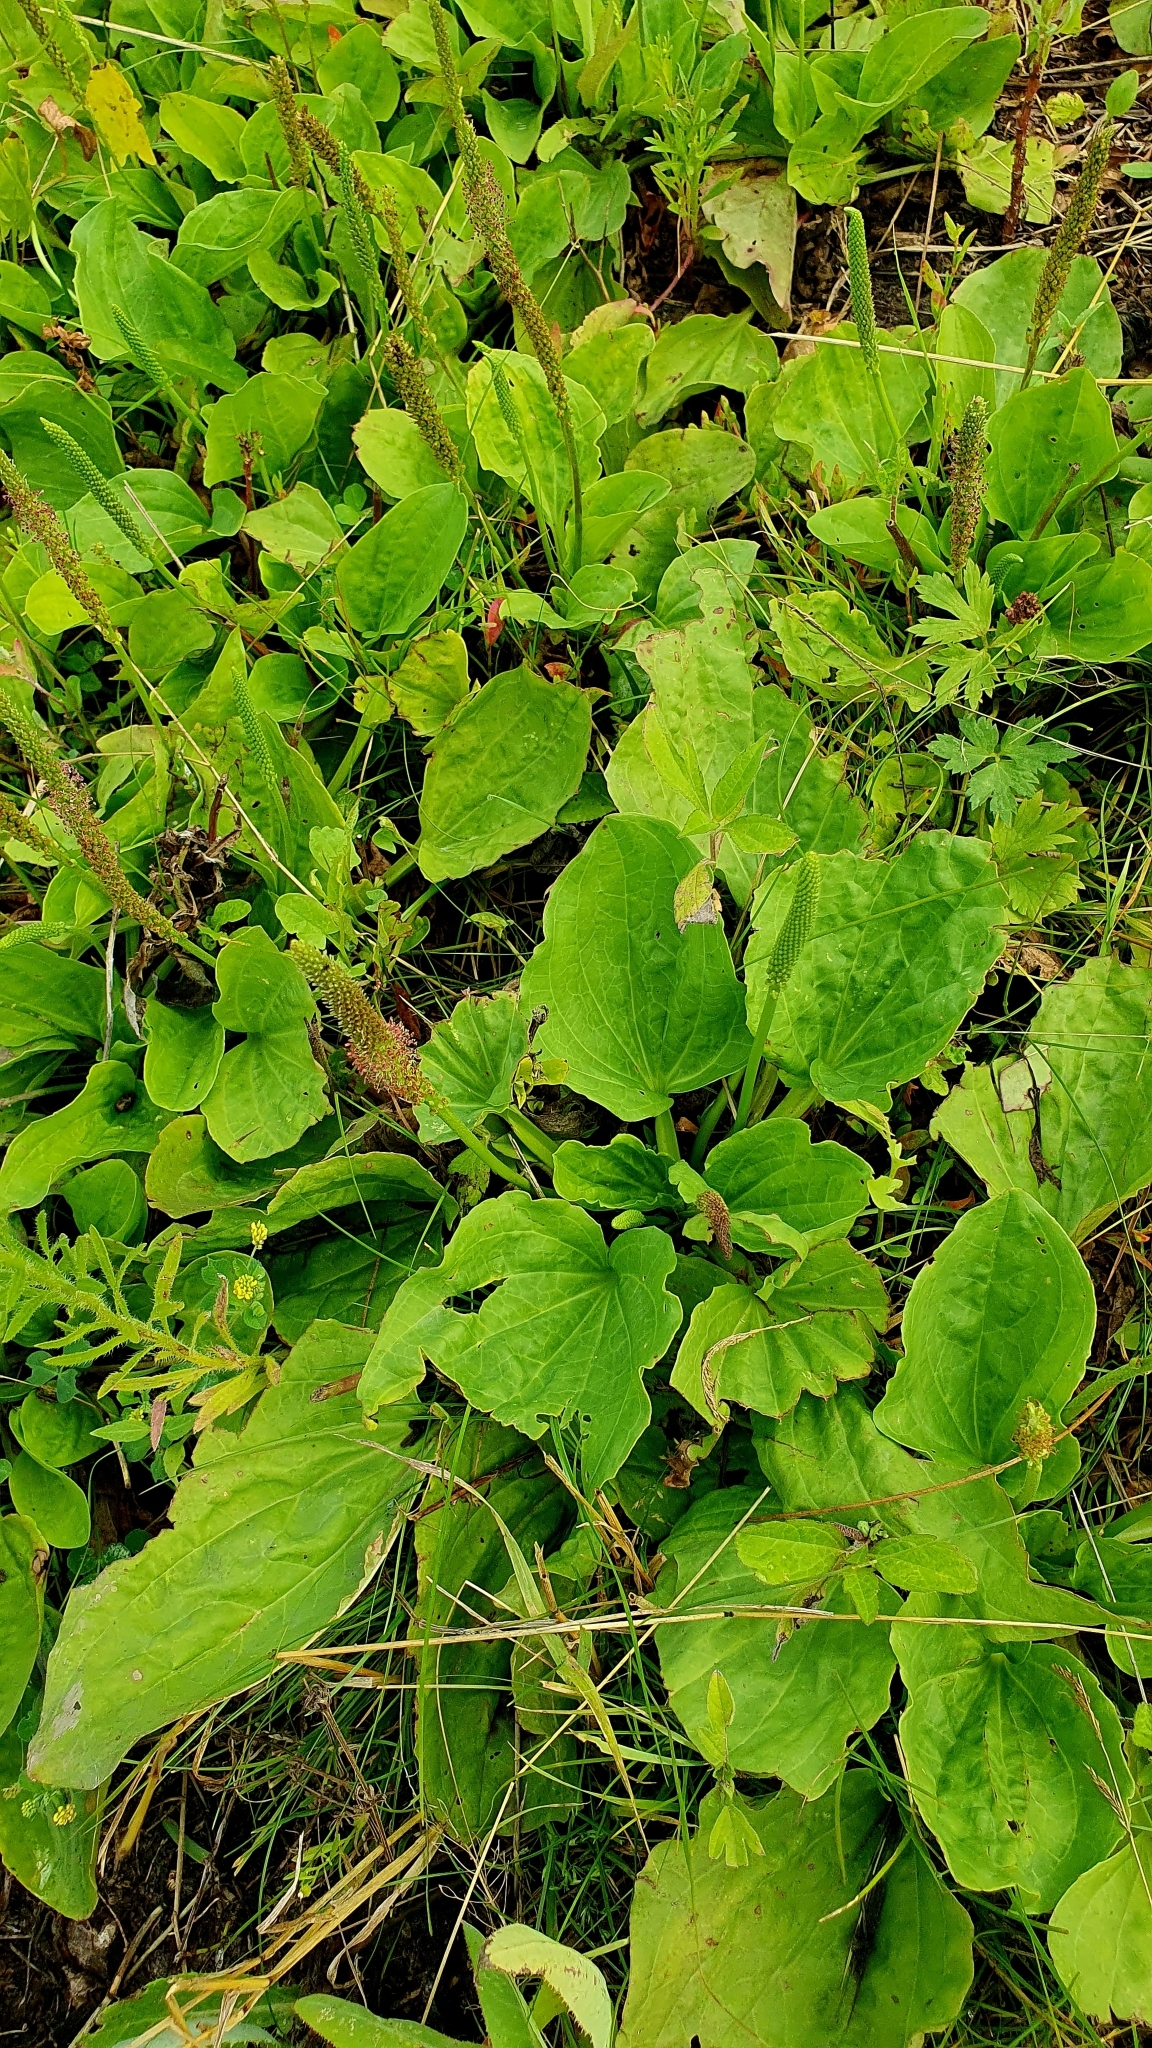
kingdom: Plantae
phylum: Tracheophyta
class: Magnoliopsida
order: Lamiales
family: Plantaginaceae
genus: Plantago
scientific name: Plantago major
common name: Common plantain
